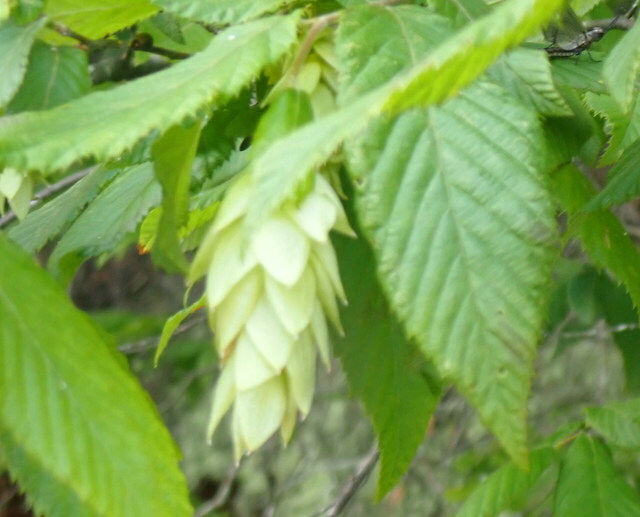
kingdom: Plantae
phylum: Tracheophyta
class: Magnoliopsida
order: Fagales
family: Betulaceae
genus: Ostrya
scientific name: Ostrya virginiana
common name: Ironwood
